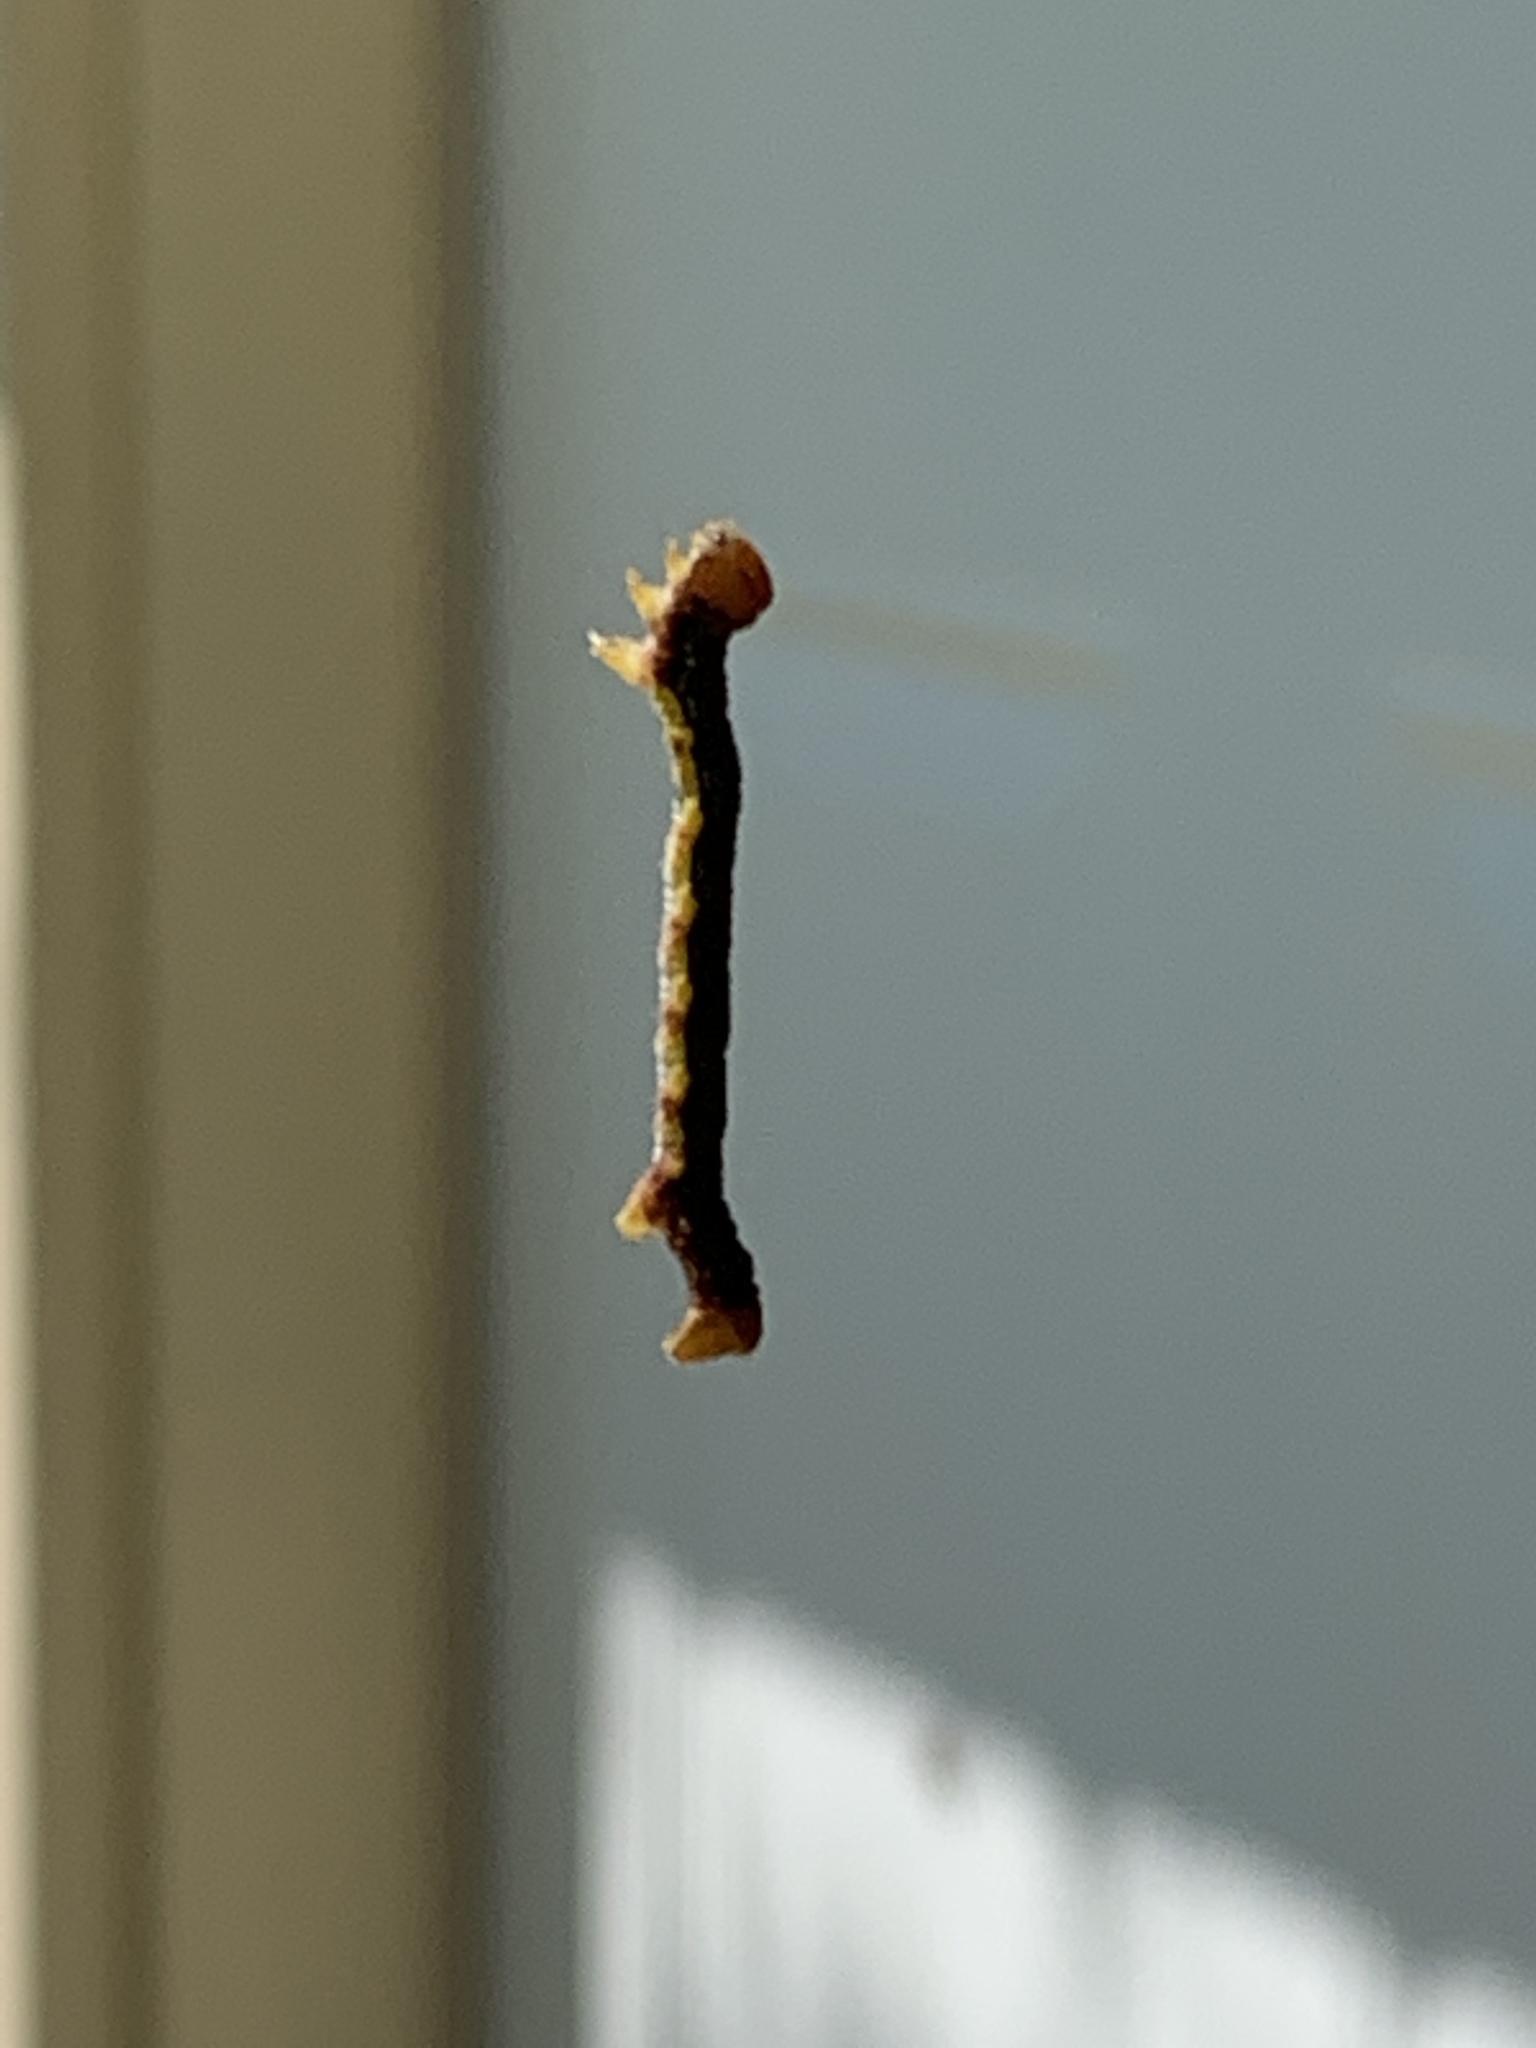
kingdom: Animalia
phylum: Arthropoda
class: Insecta
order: Lepidoptera
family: Geometridae
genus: Erannis
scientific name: Erannis tiliaria
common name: Linden looper
